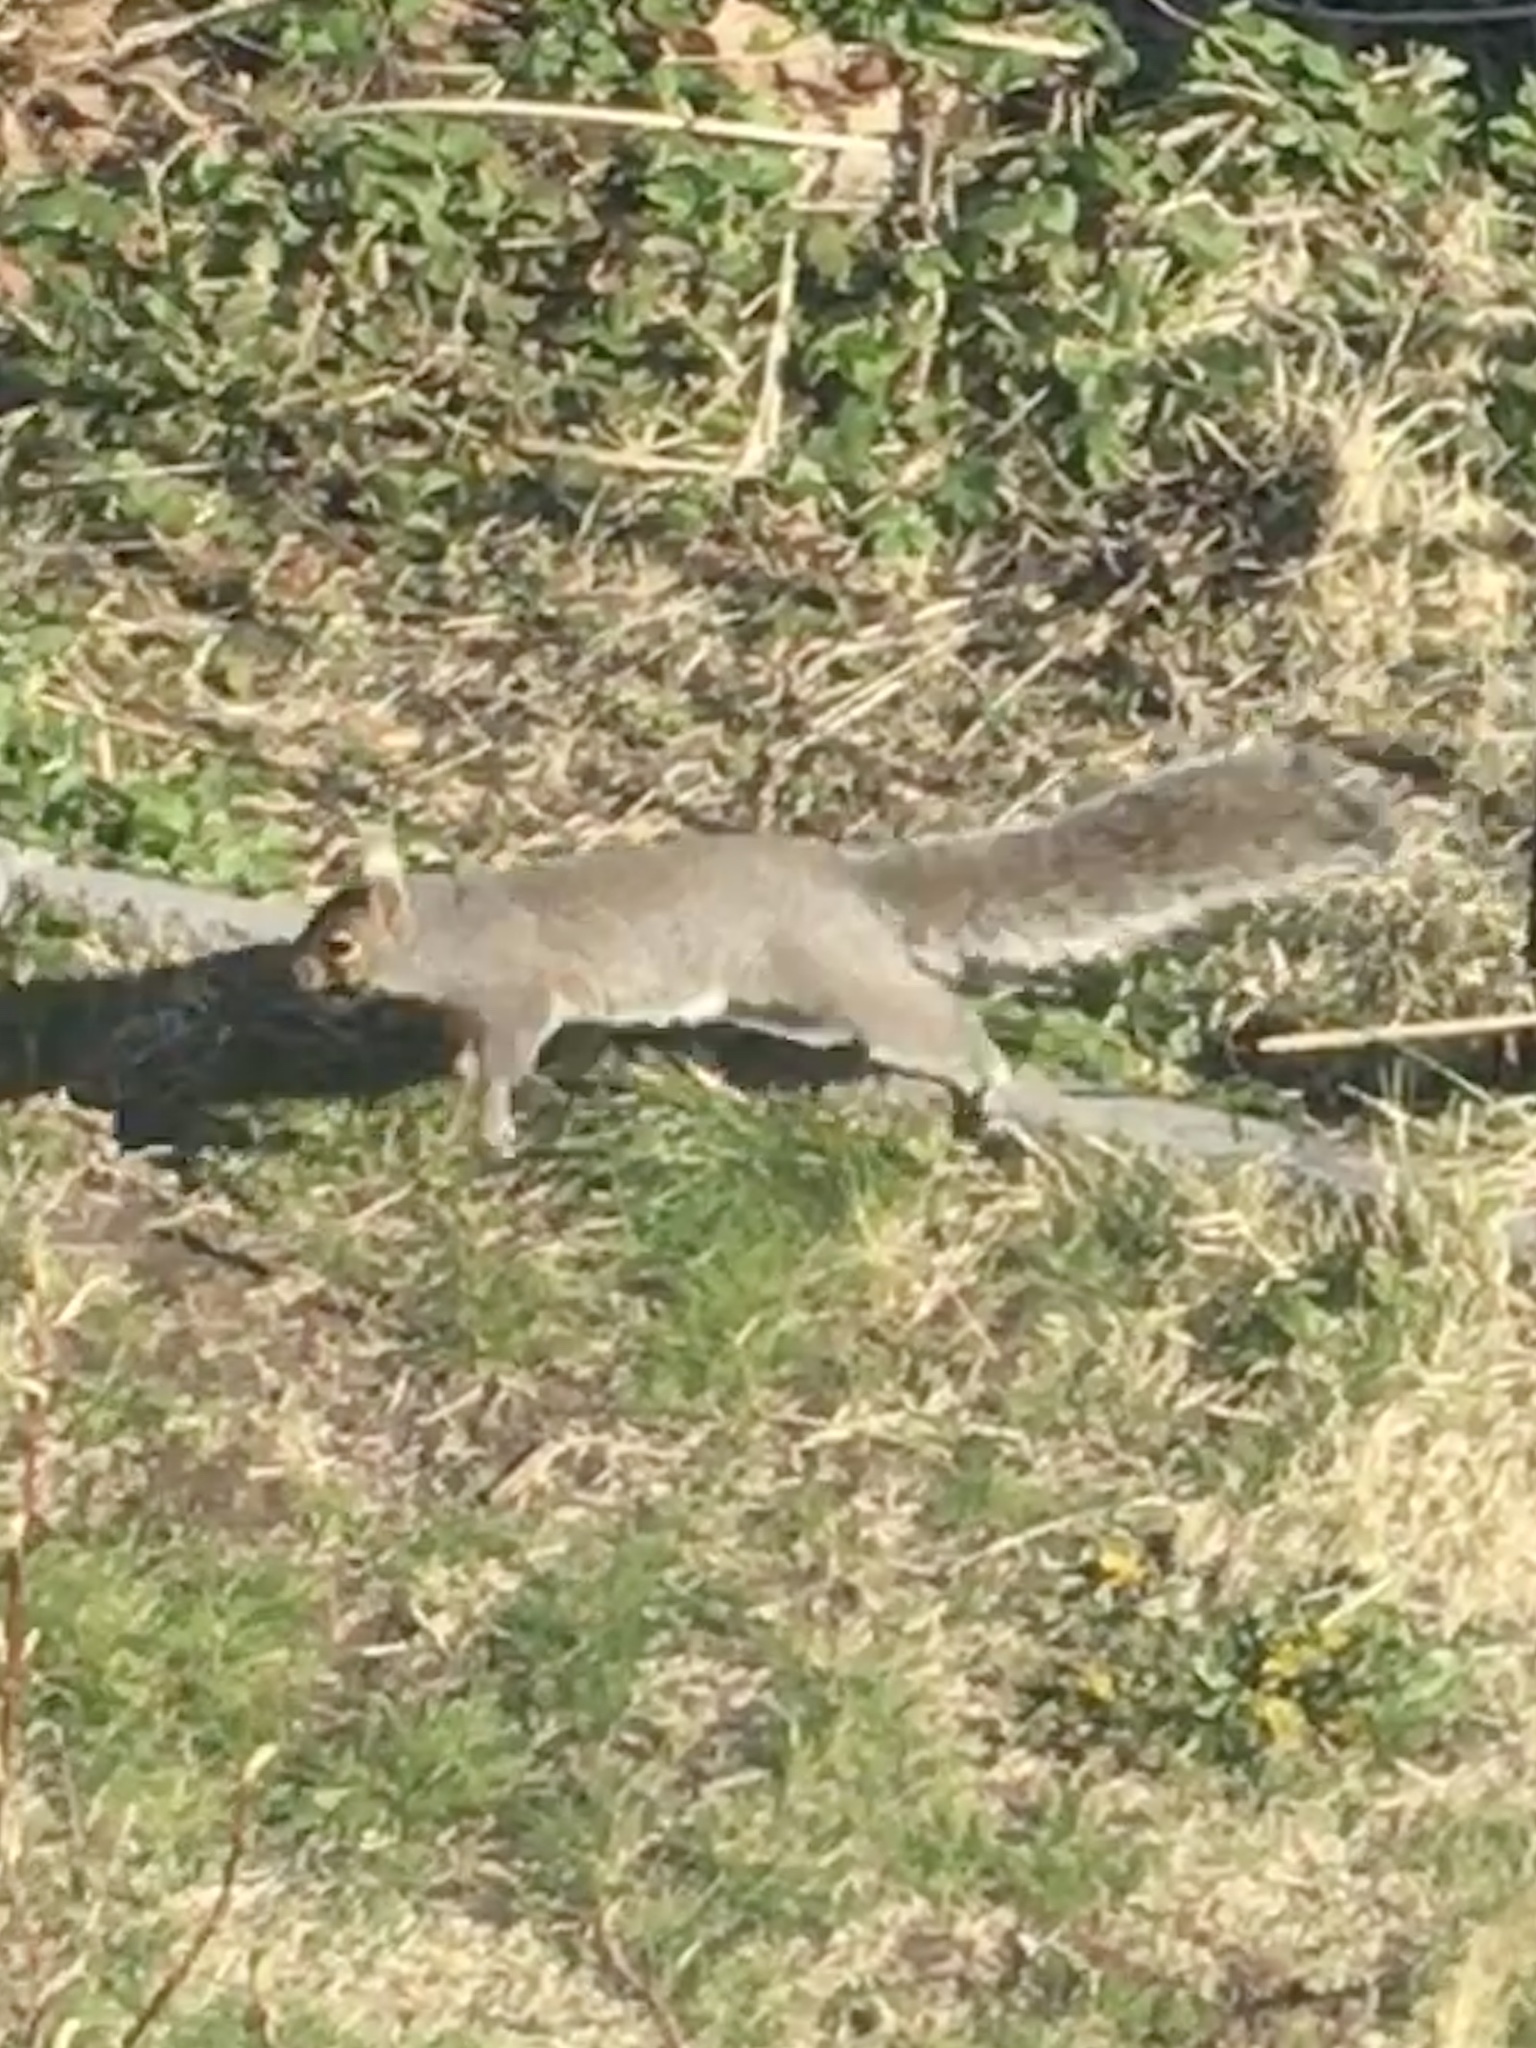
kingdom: Animalia
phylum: Chordata
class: Mammalia
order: Rodentia
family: Sciuridae
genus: Sciurus
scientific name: Sciurus carolinensis
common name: Eastern gray squirrel
